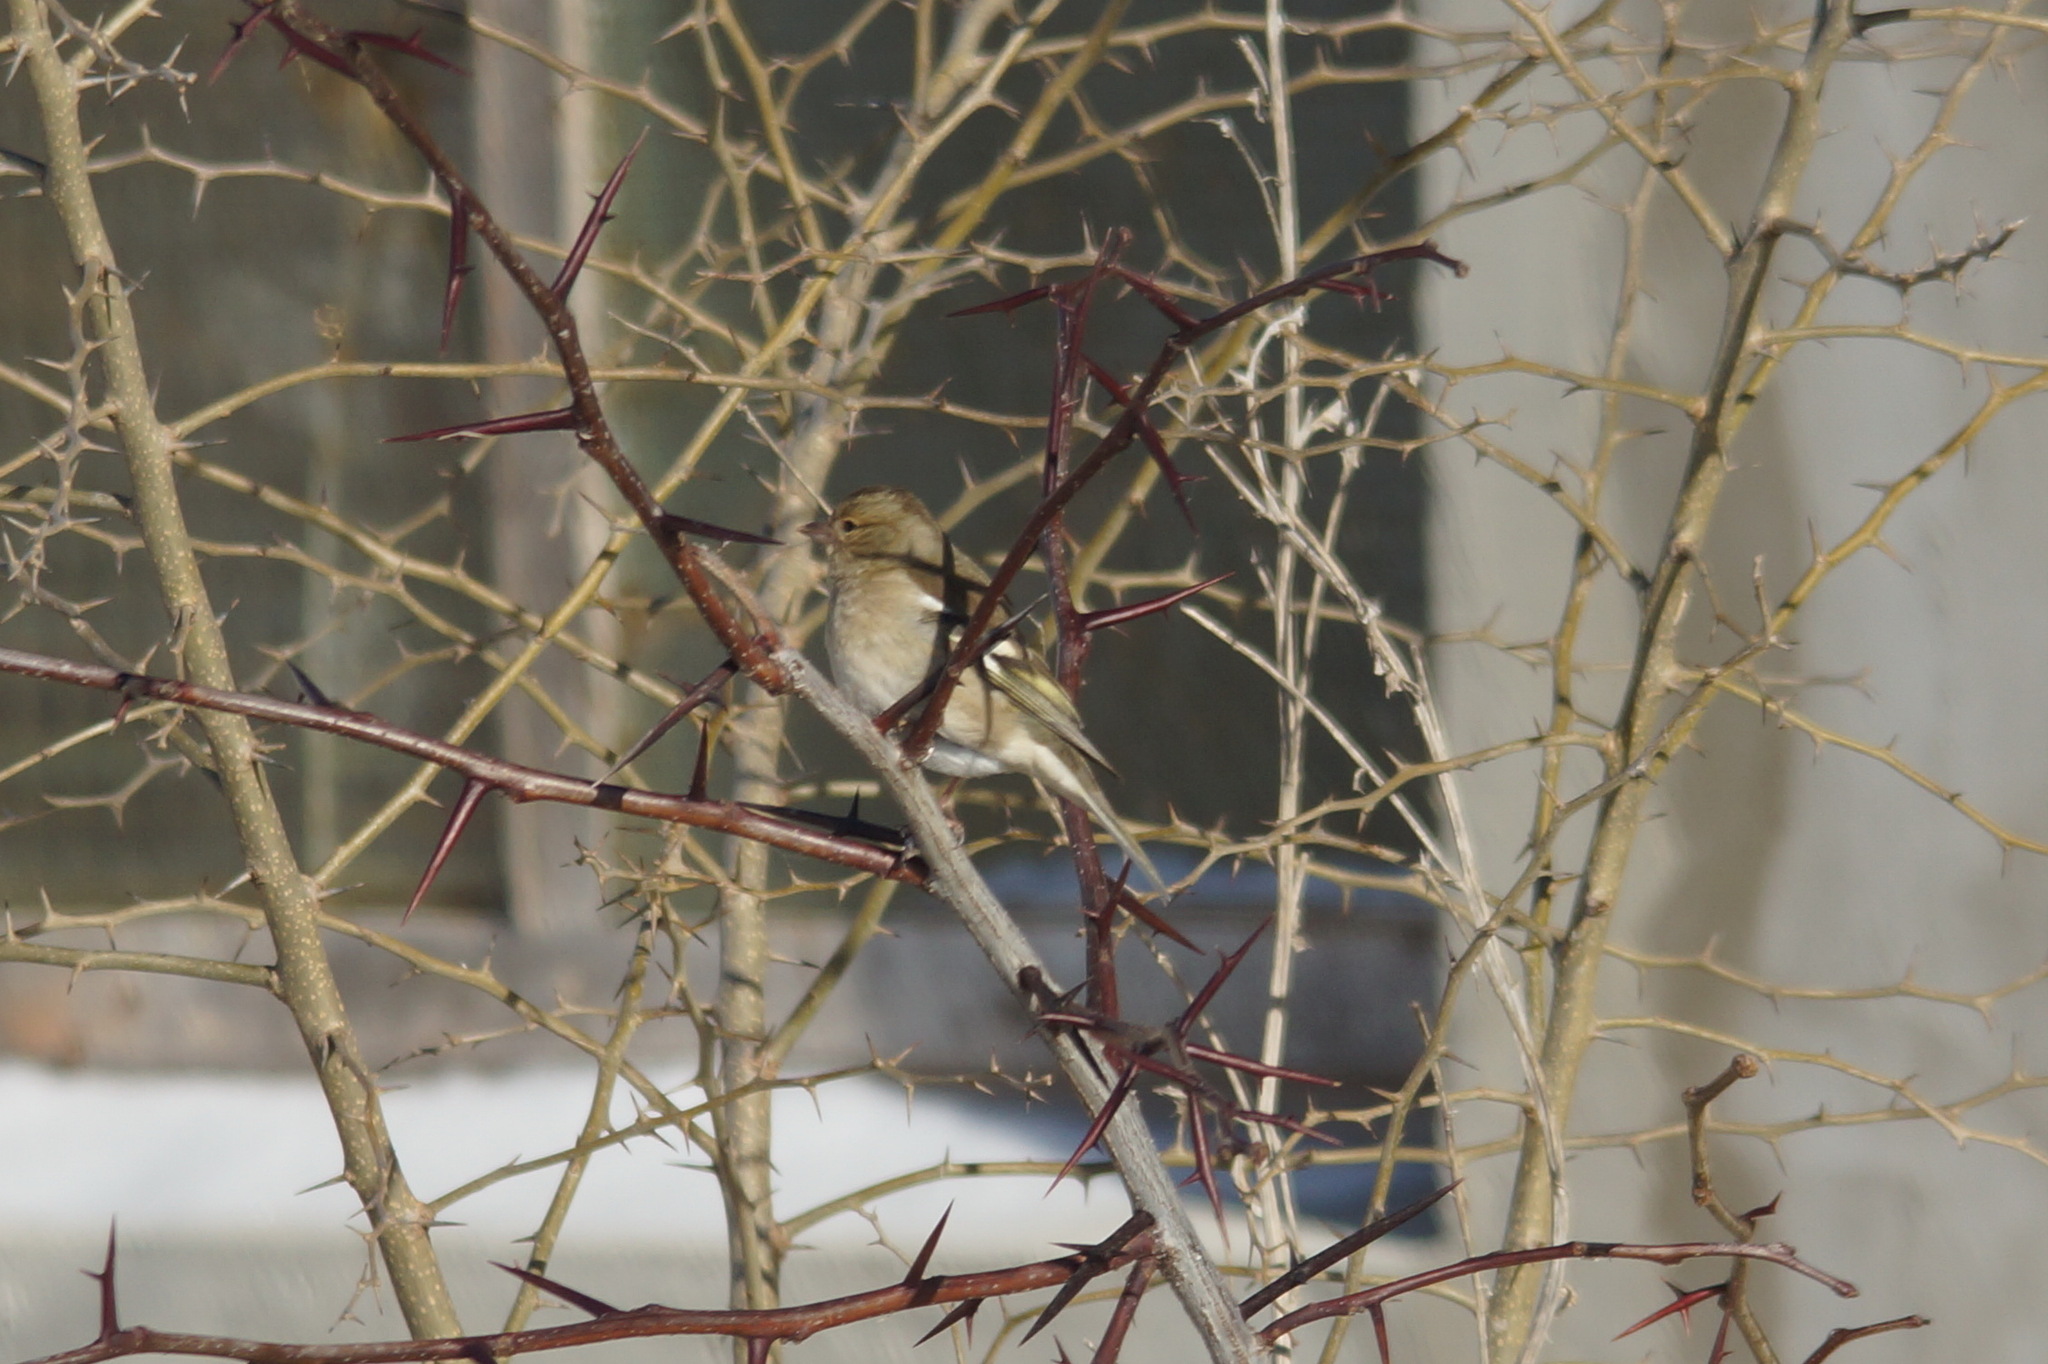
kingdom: Animalia
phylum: Chordata
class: Aves
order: Passeriformes
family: Fringillidae
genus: Fringilla
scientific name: Fringilla coelebs
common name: Common chaffinch
